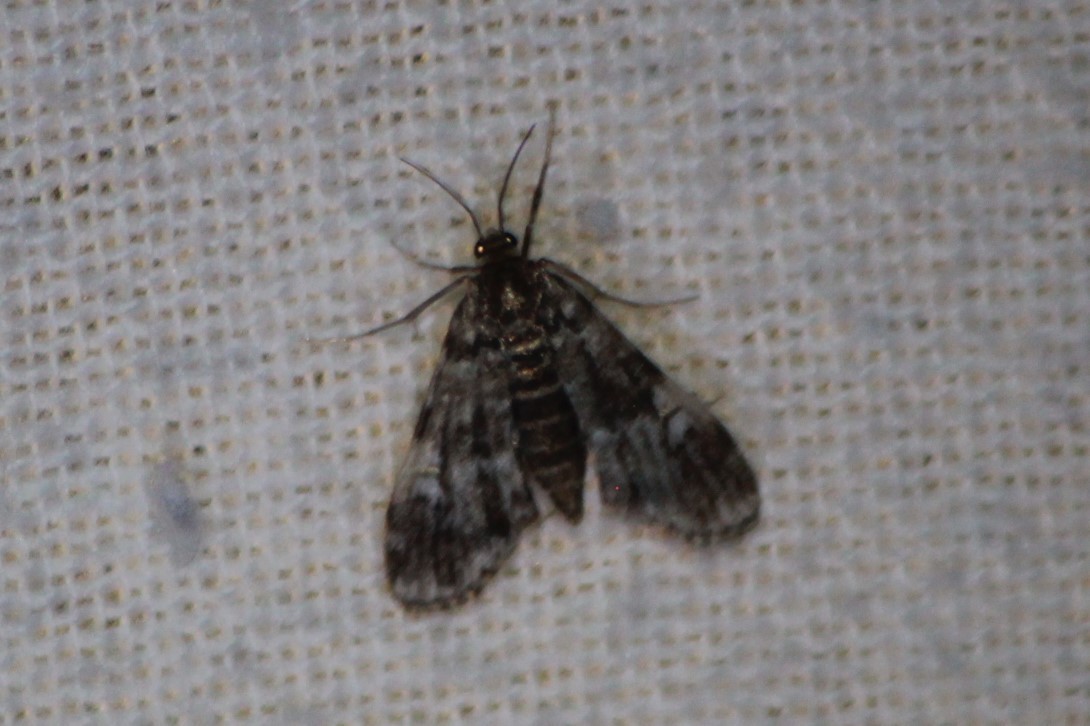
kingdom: Animalia
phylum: Arthropoda
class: Insecta
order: Lepidoptera
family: Crambidae
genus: Elophila
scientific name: Elophila obliteralis
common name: Waterlily leafcutter moth
